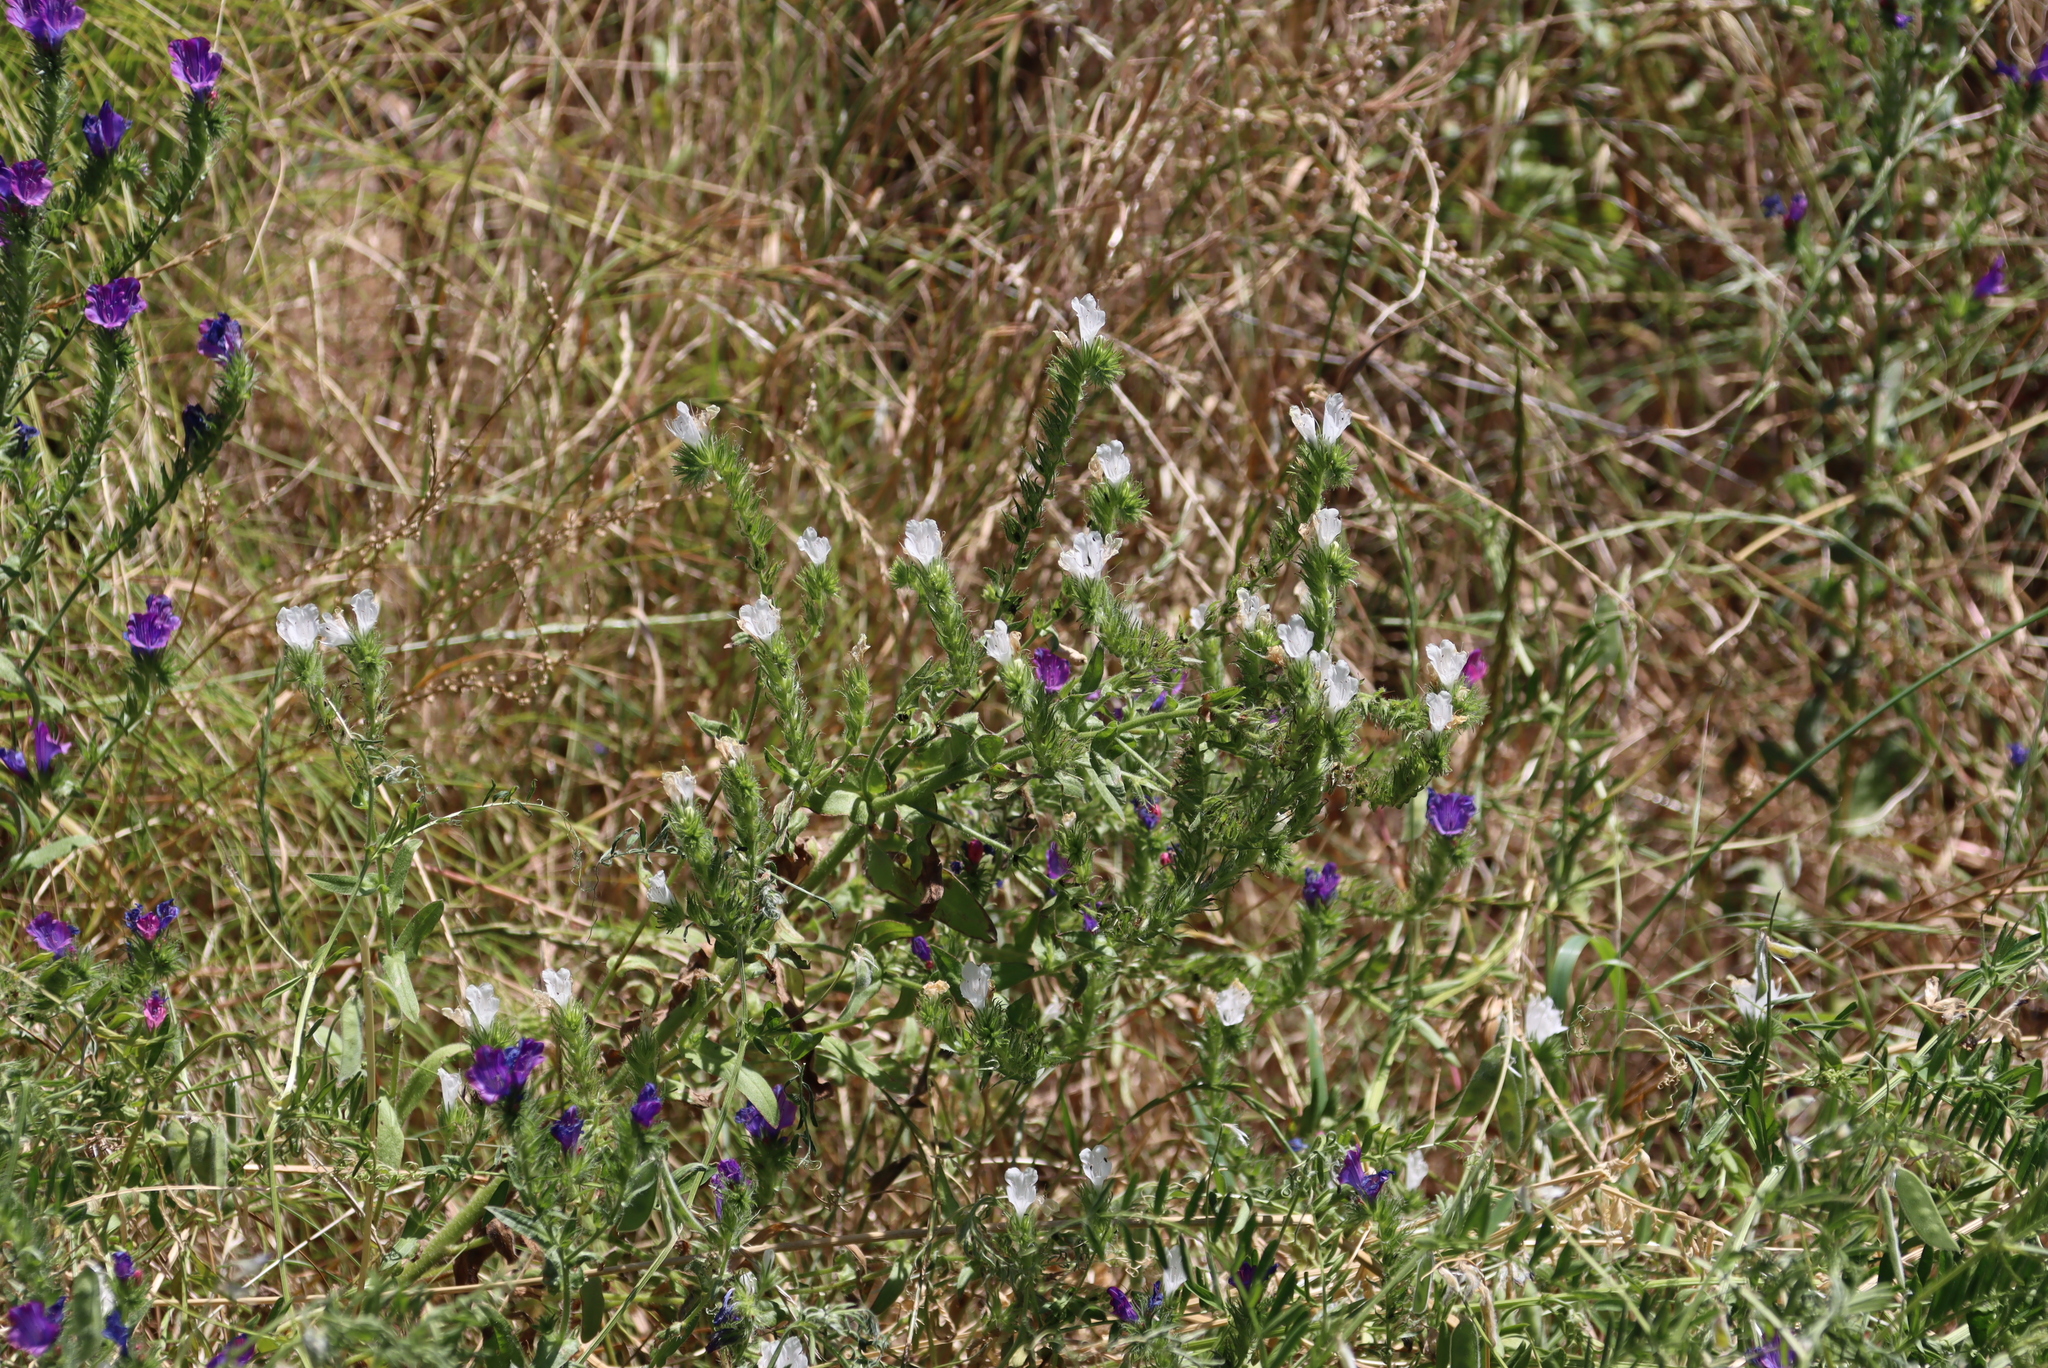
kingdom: Plantae
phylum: Tracheophyta
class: Magnoliopsida
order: Boraginales
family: Boraginaceae
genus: Echium
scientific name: Echium plantagineum
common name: Purple viper's-bugloss
